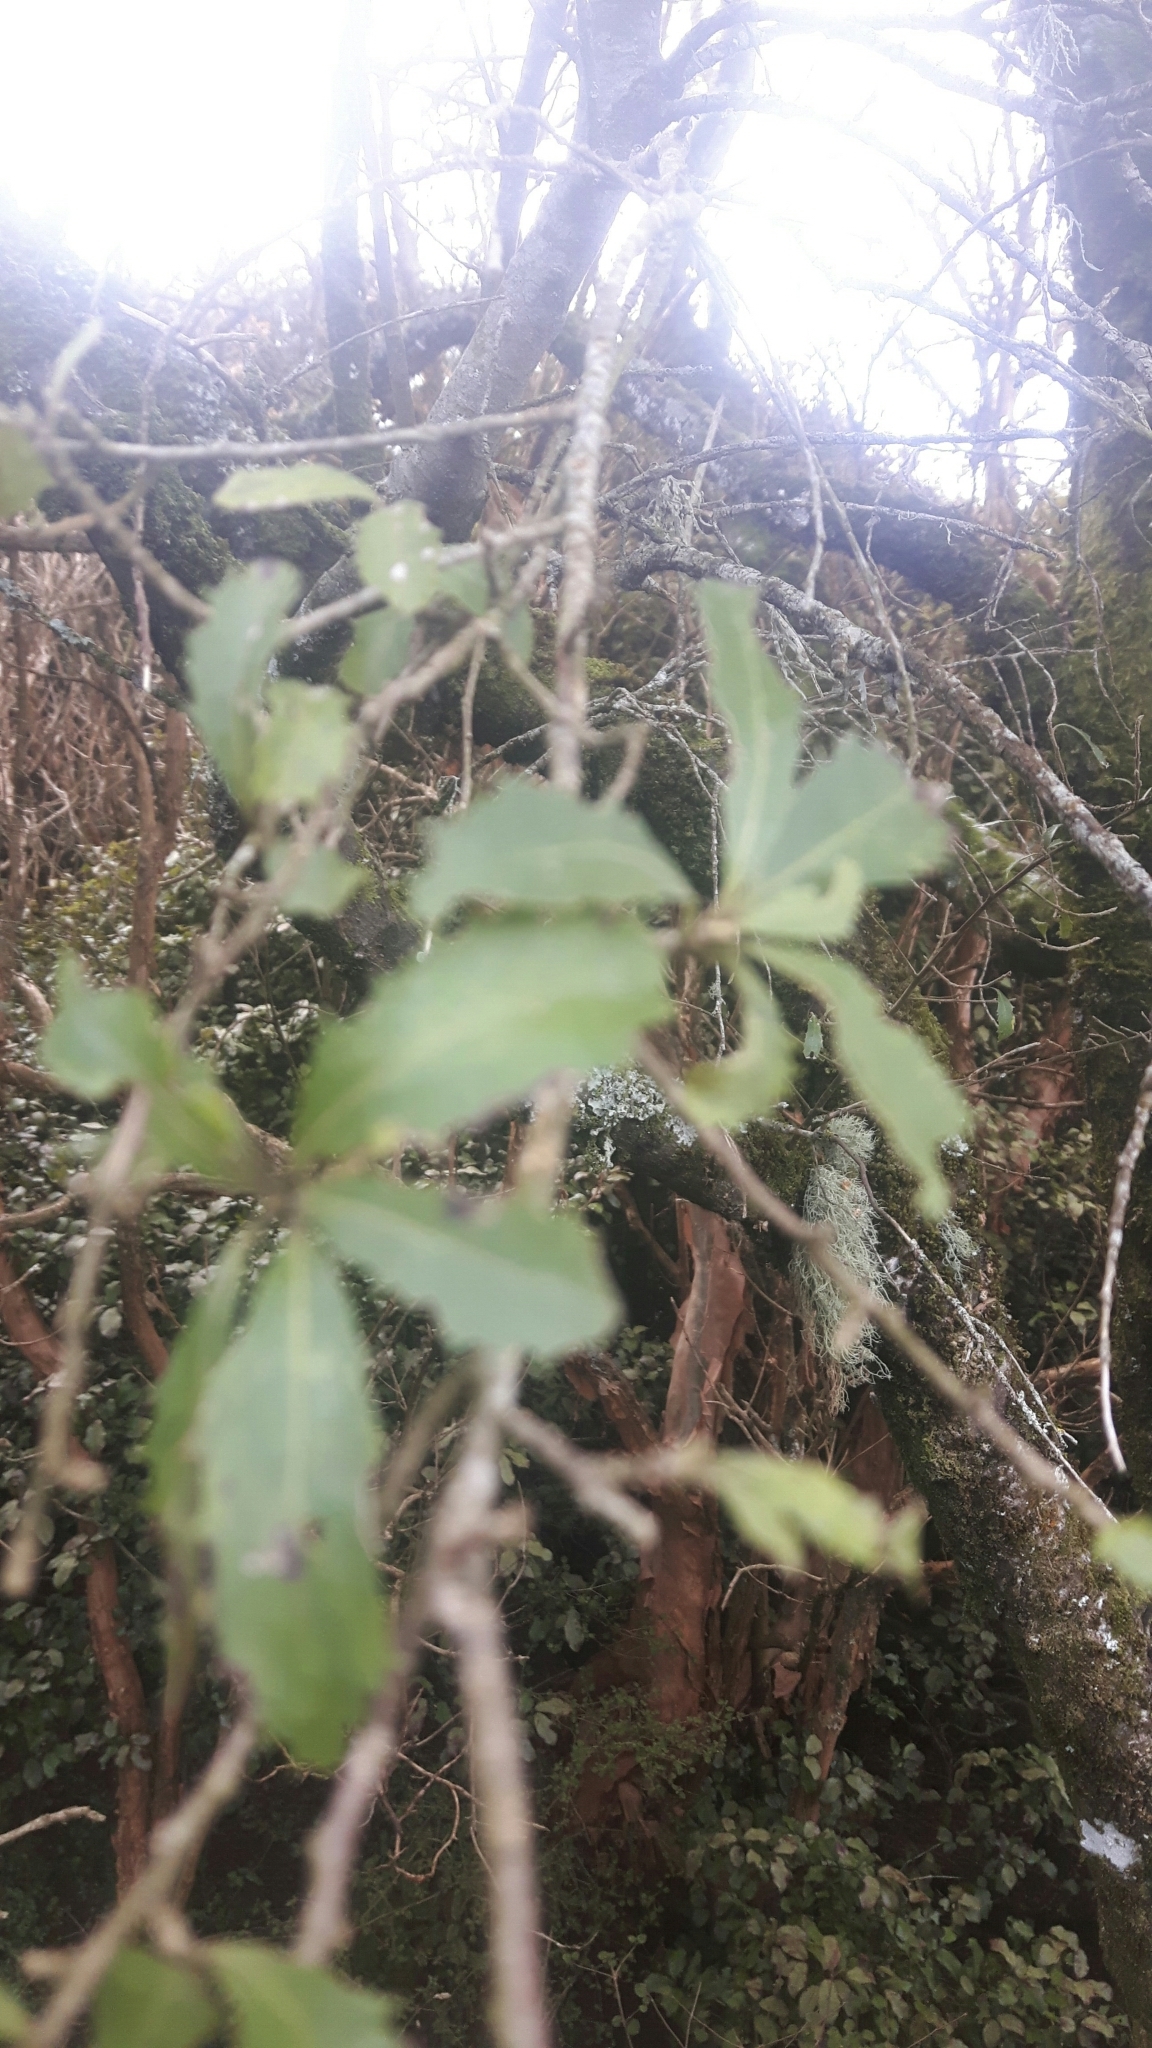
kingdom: Plantae
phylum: Tracheophyta
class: Magnoliopsida
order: Malvales
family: Malvaceae
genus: Hoheria
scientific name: Hoheria angustifolia
